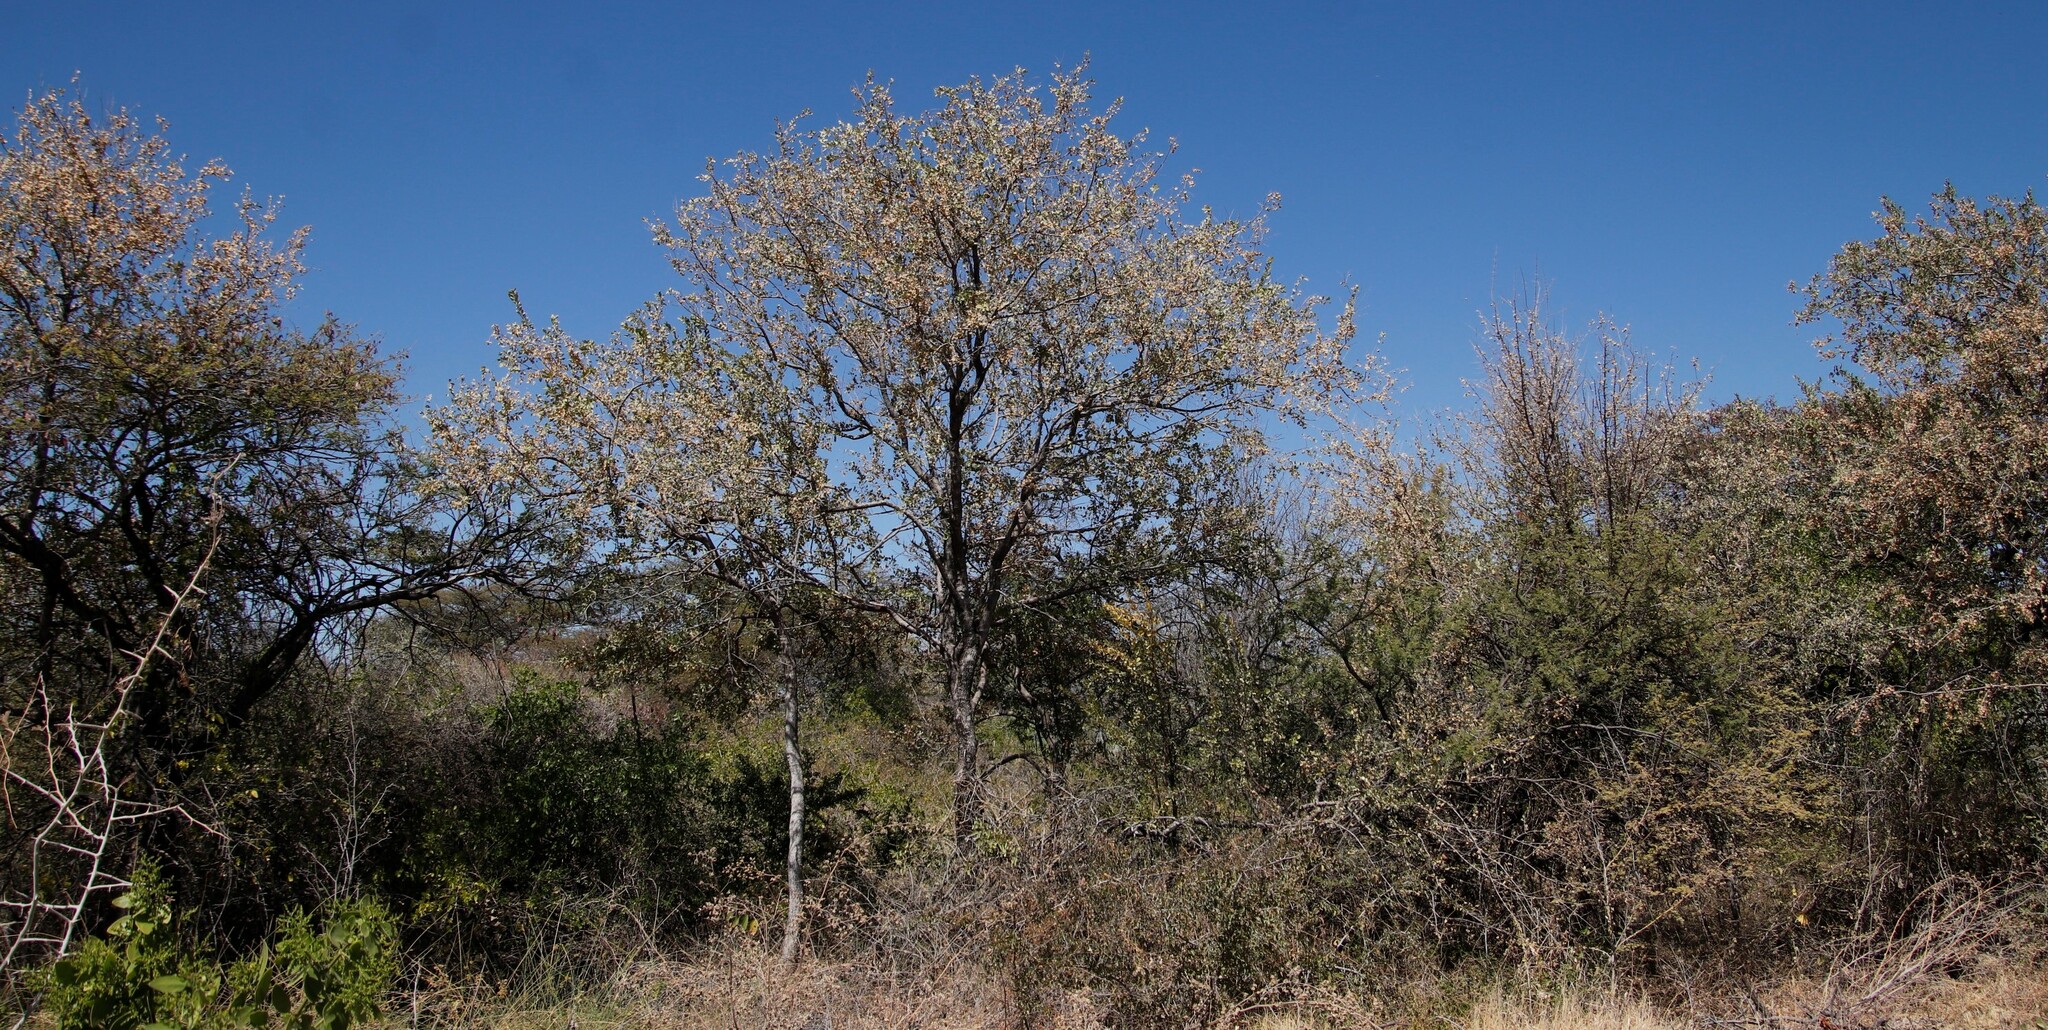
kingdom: Plantae
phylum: Tracheophyta
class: Magnoliopsida
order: Myrtales
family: Combretaceae
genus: Combretum
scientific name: Combretum imberbe
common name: Leadwood
